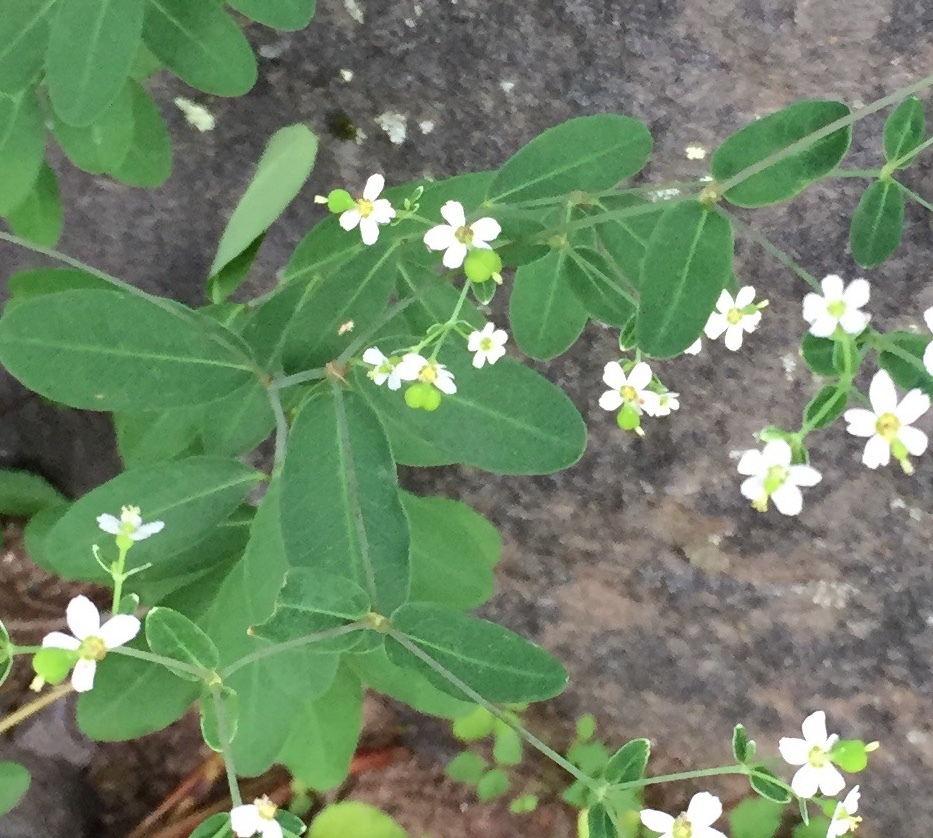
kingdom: Plantae
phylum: Tracheophyta
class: Magnoliopsida
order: Malpighiales
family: Euphorbiaceae
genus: Euphorbia
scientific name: Euphorbia corollata
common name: Flowering spurge
